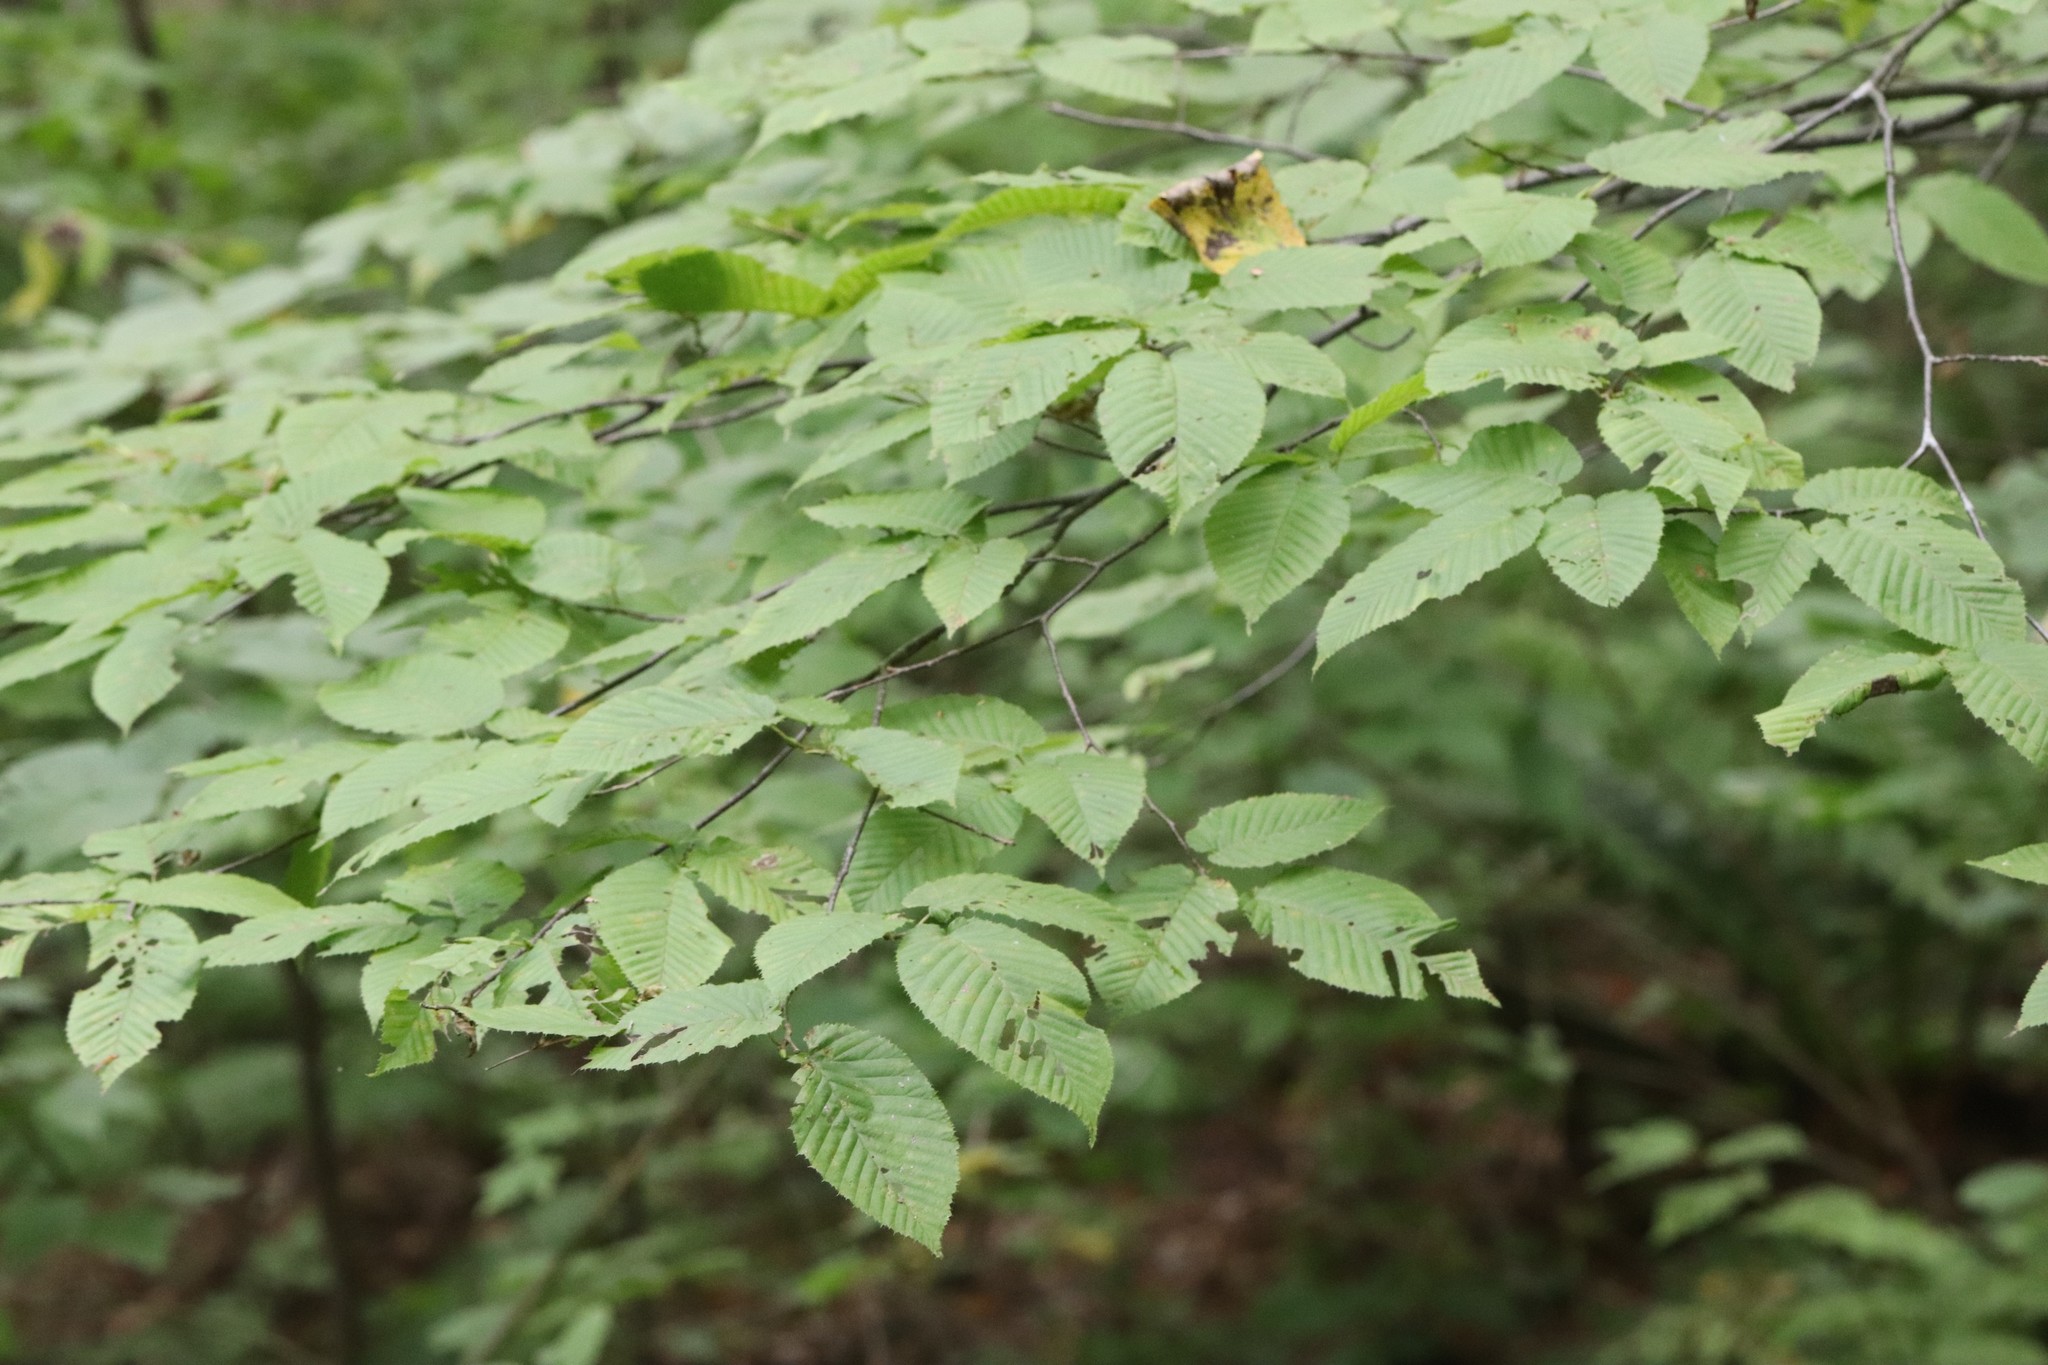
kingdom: Plantae
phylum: Tracheophyta
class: Magnoliopsida
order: Fagales
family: Betulaceae
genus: Carpinus
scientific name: Carpinus cordata
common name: Sawa hornbeam
